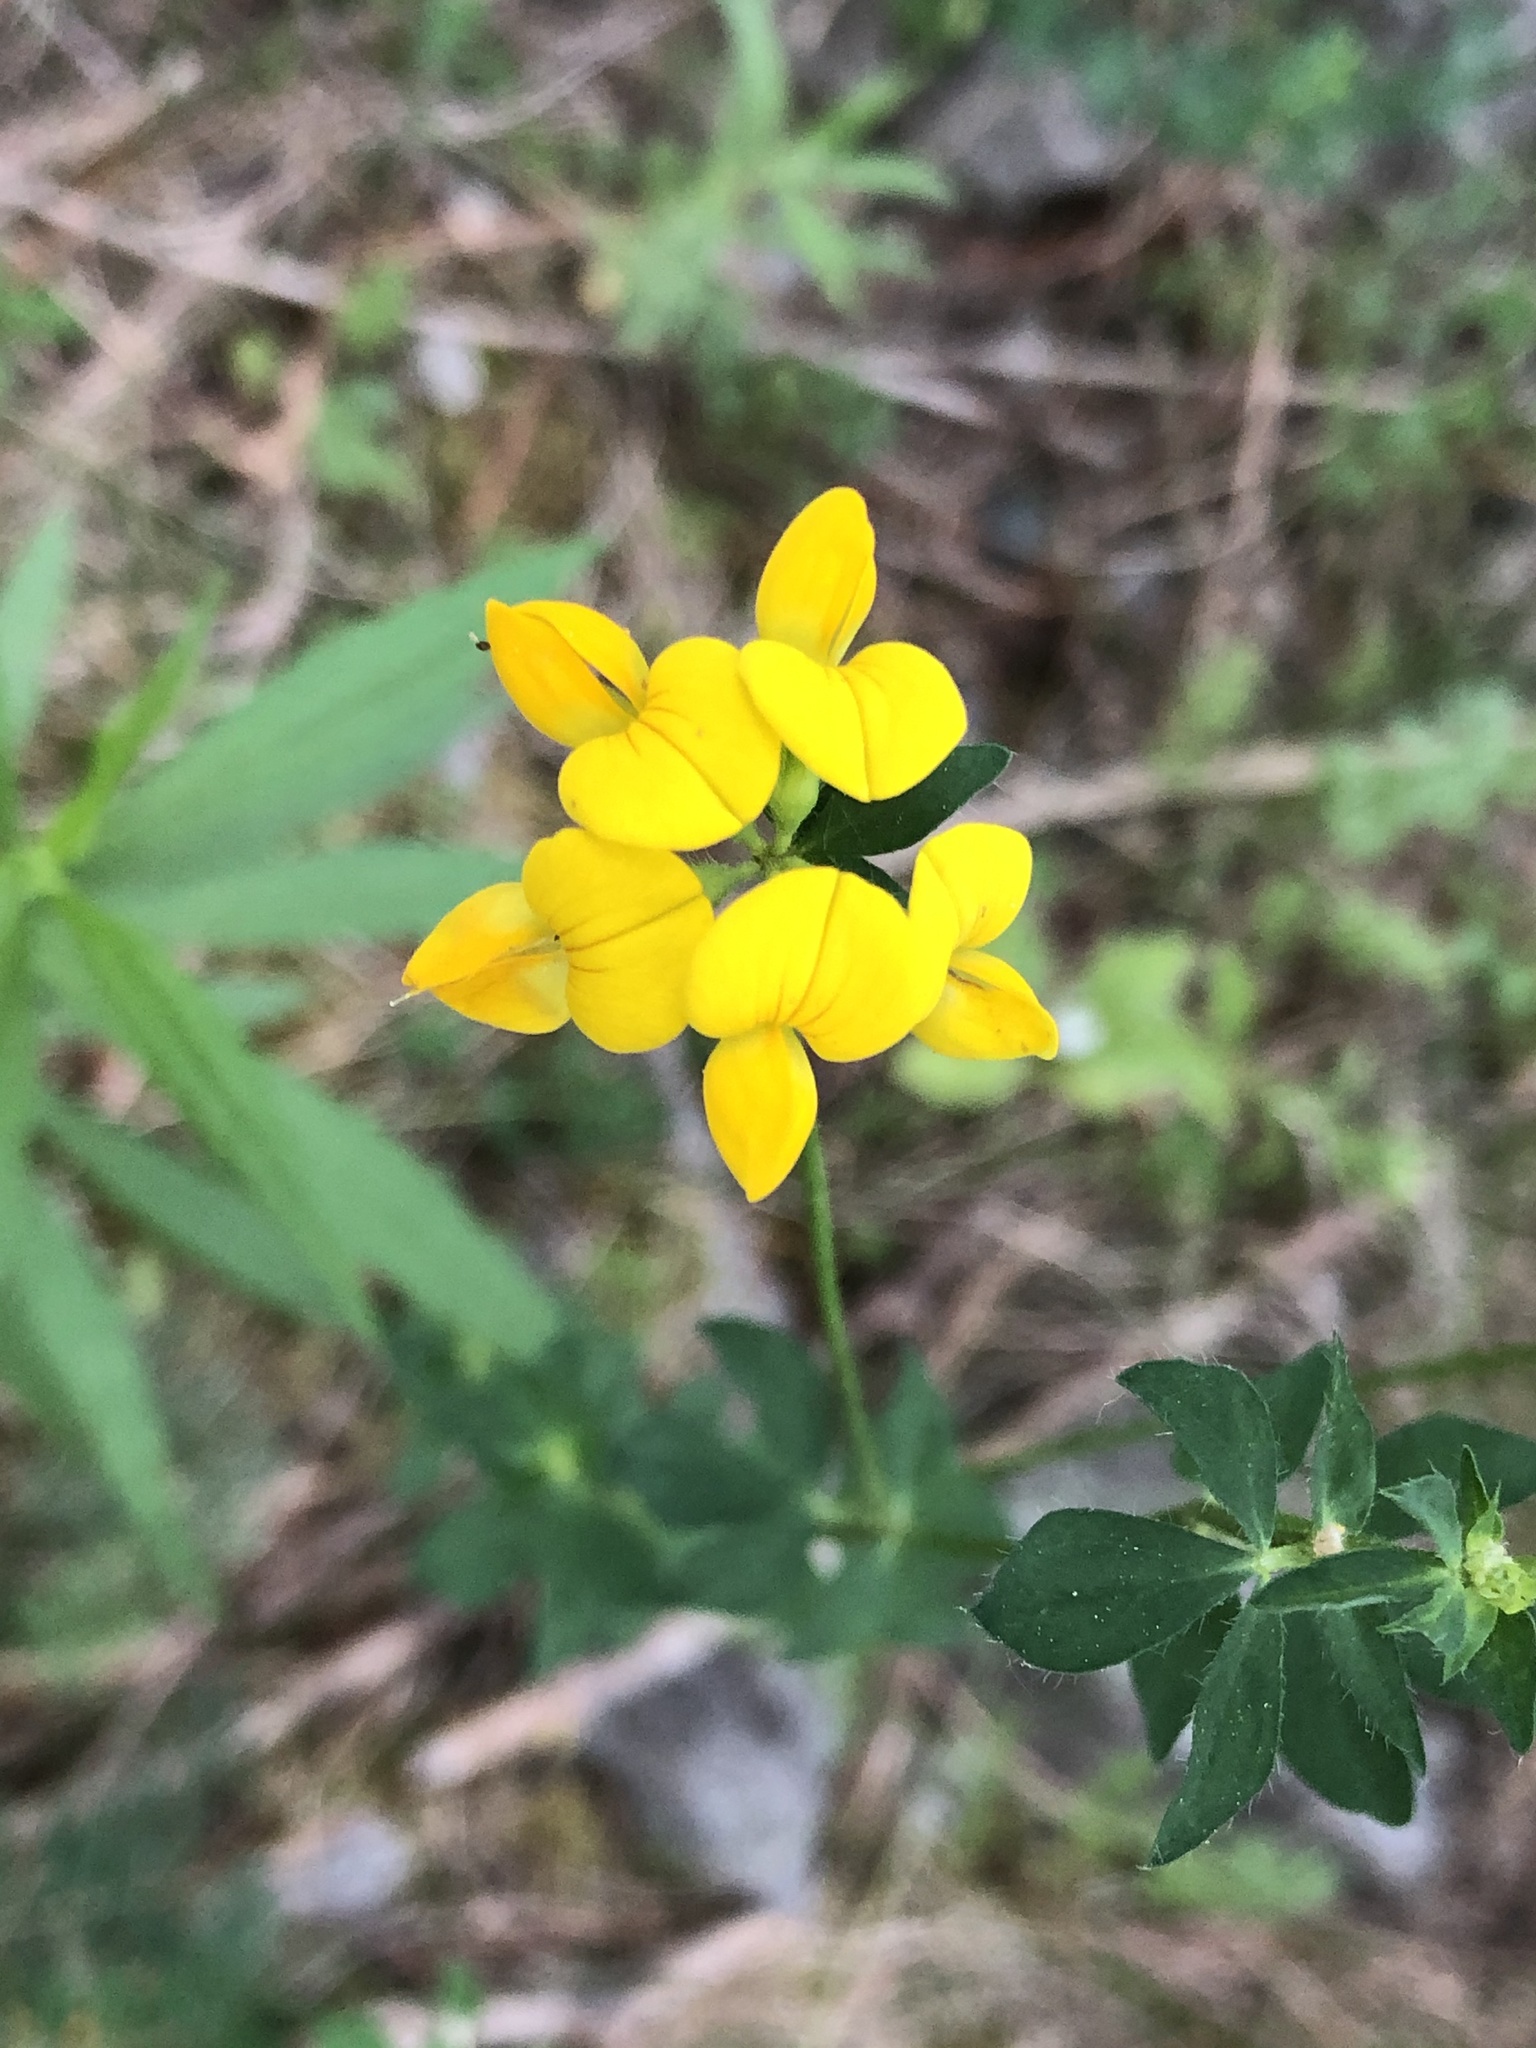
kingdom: Plantae
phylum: Tracheophyta
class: Magnoliopsida
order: Fabales
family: Fabaceae
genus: Lotus
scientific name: Lotus corniculatus
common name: Common bird's-foot-trefoil
